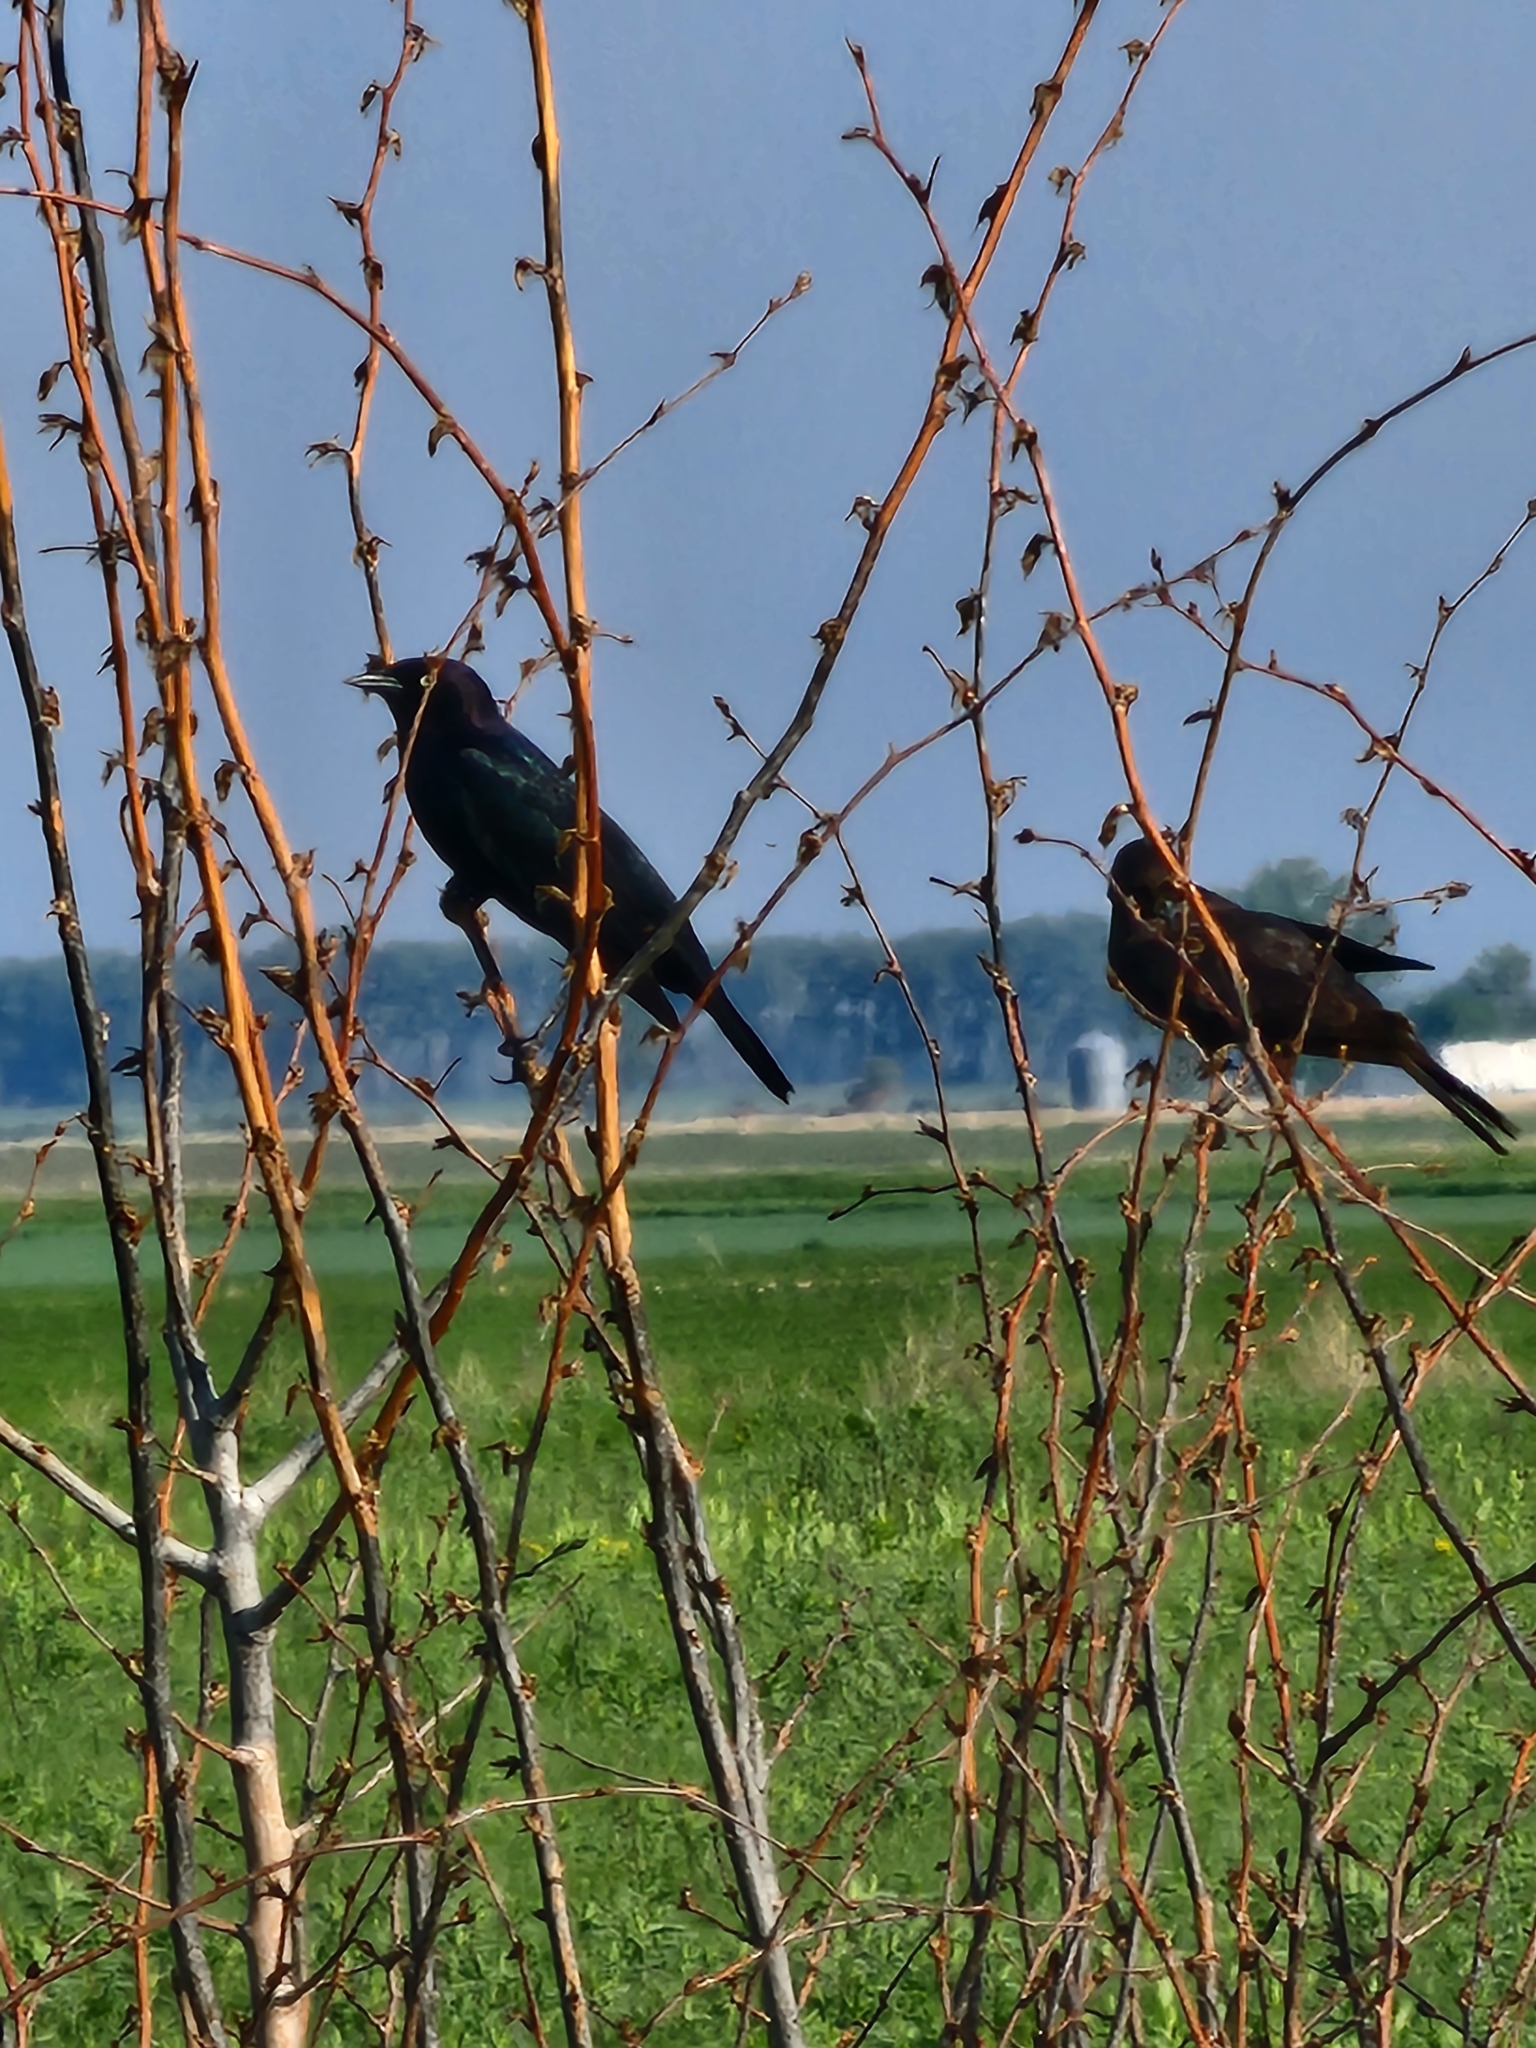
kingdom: Animalia
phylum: Chordata
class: Aves
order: Passeriformes
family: Icteridae
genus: Euphagus
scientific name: Euphagus cyanocephalus
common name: Brewer's blackbird
